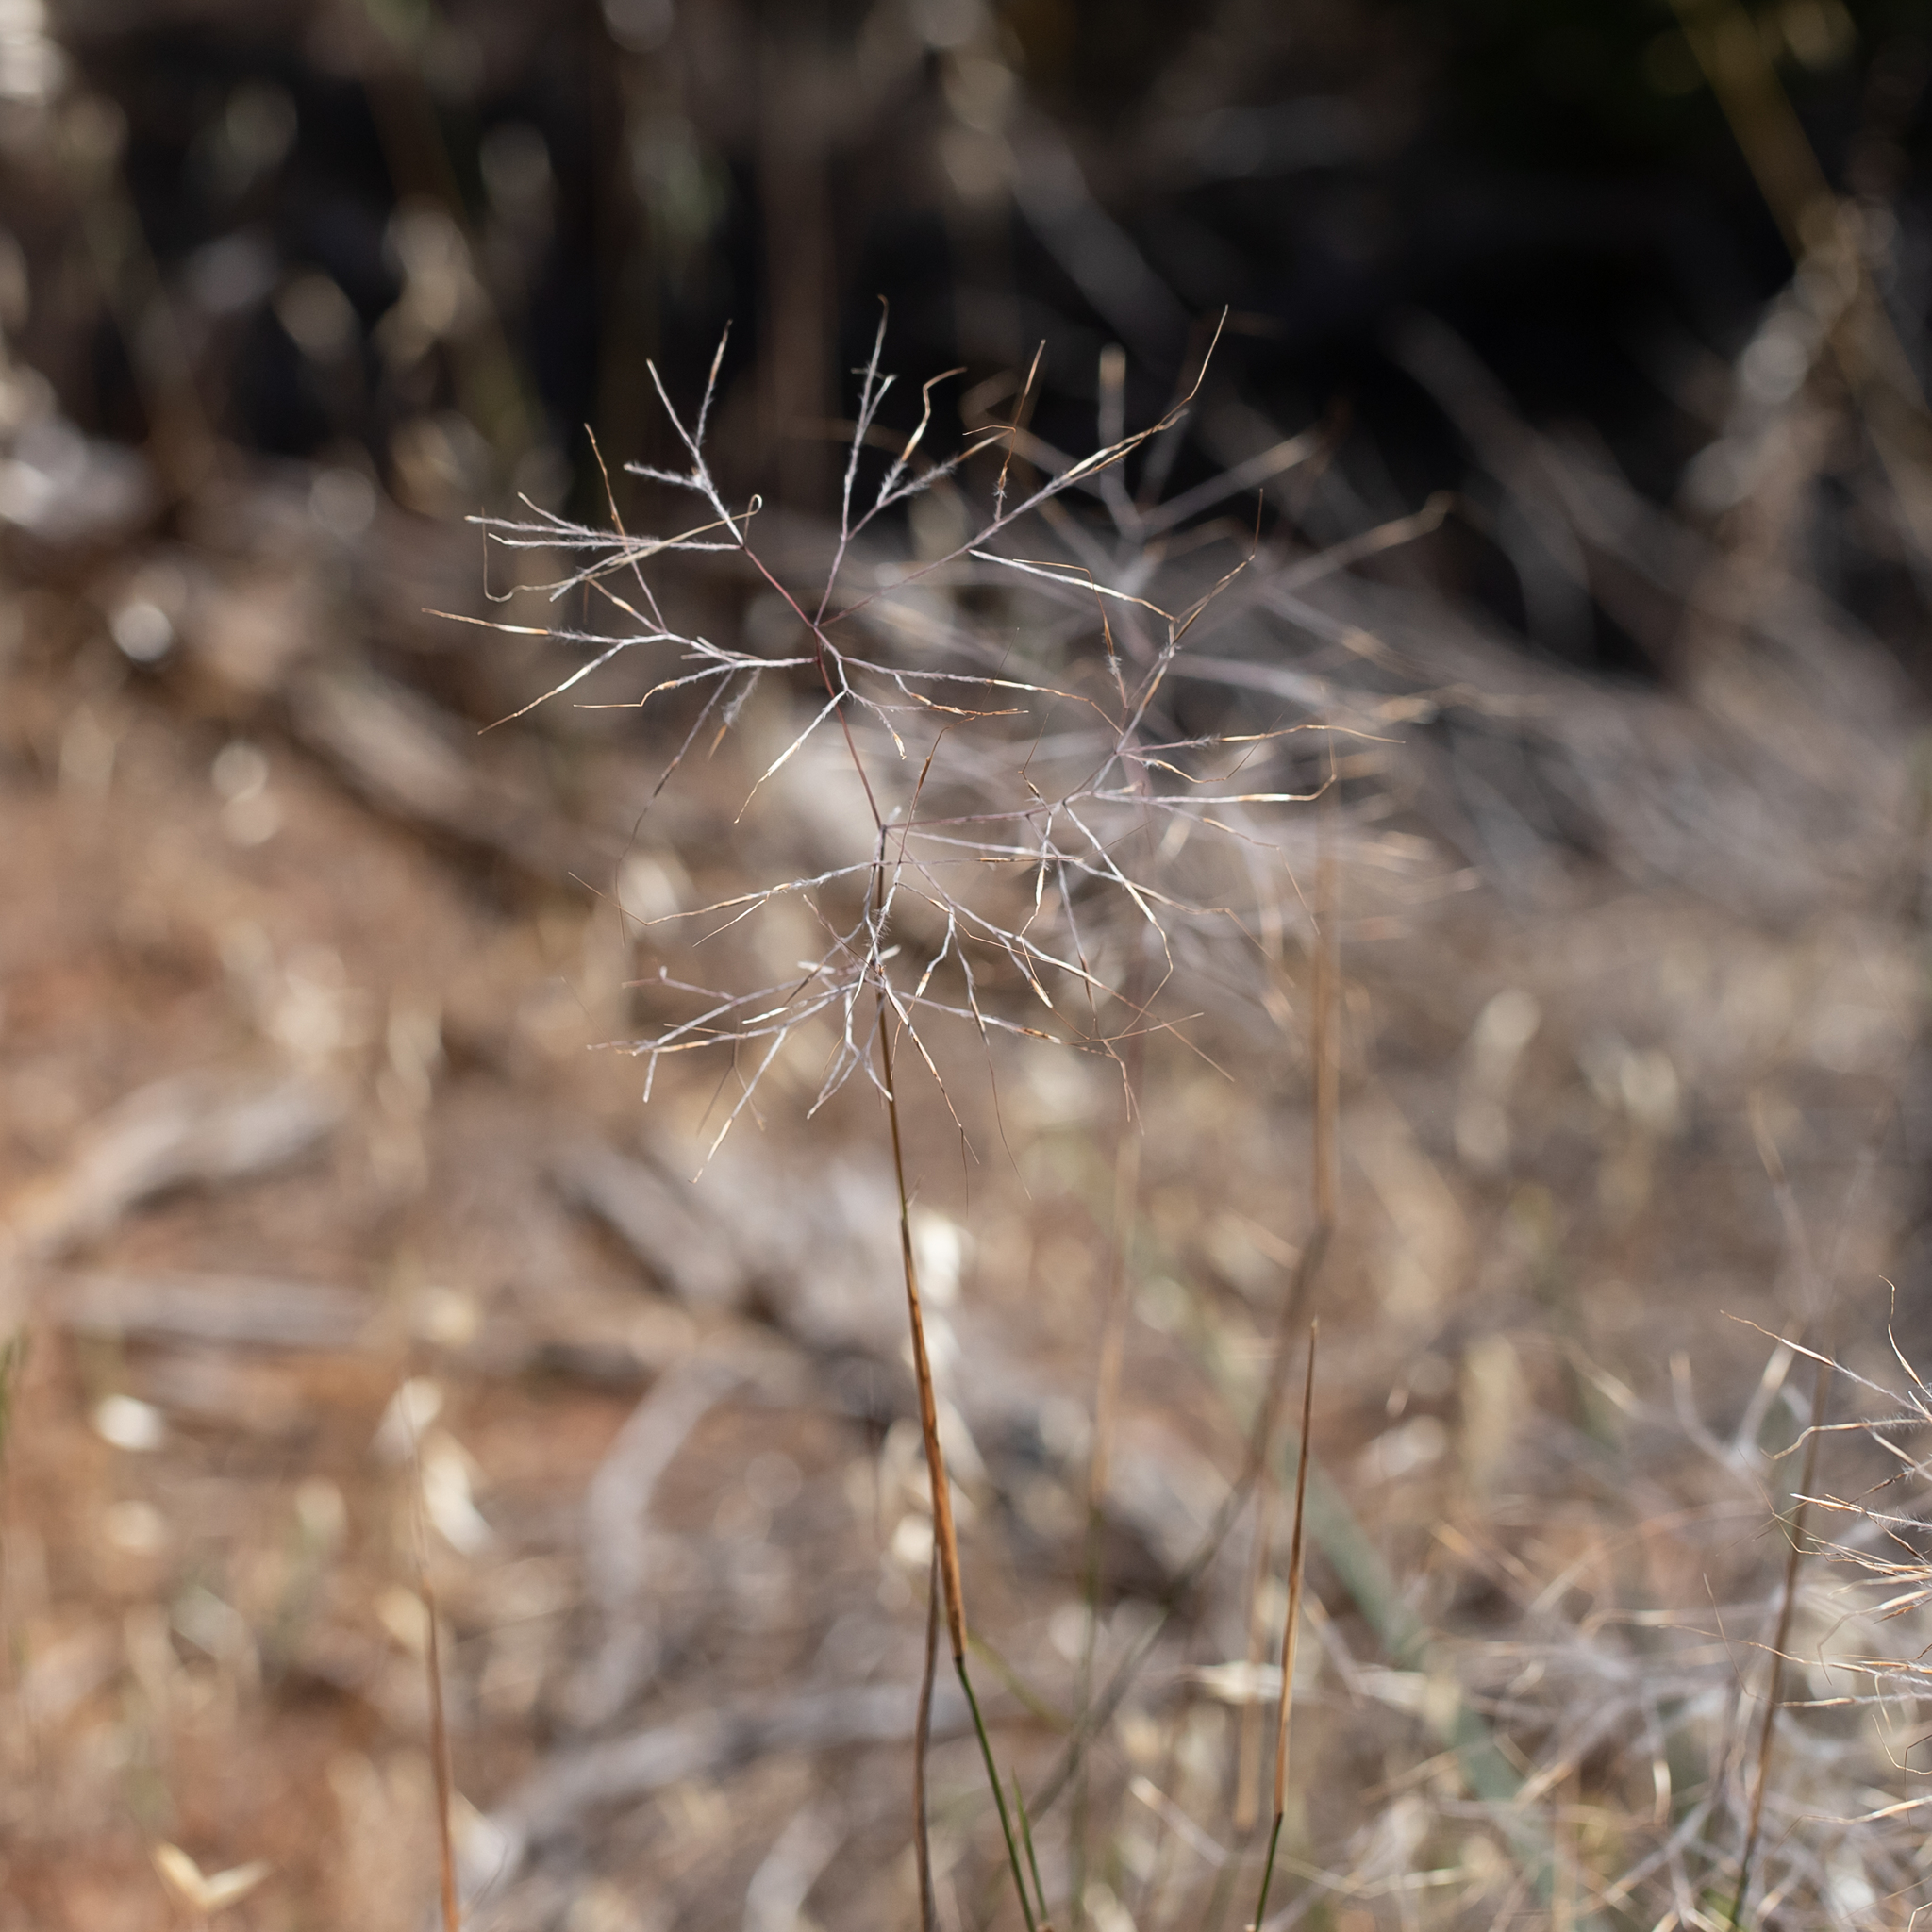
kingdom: Plantae
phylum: Tracheophyta
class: Liliopsida
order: Poales
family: Poaceae
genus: Austrostipa
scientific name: Austrostipa elegantissima
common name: Feather spear grass
